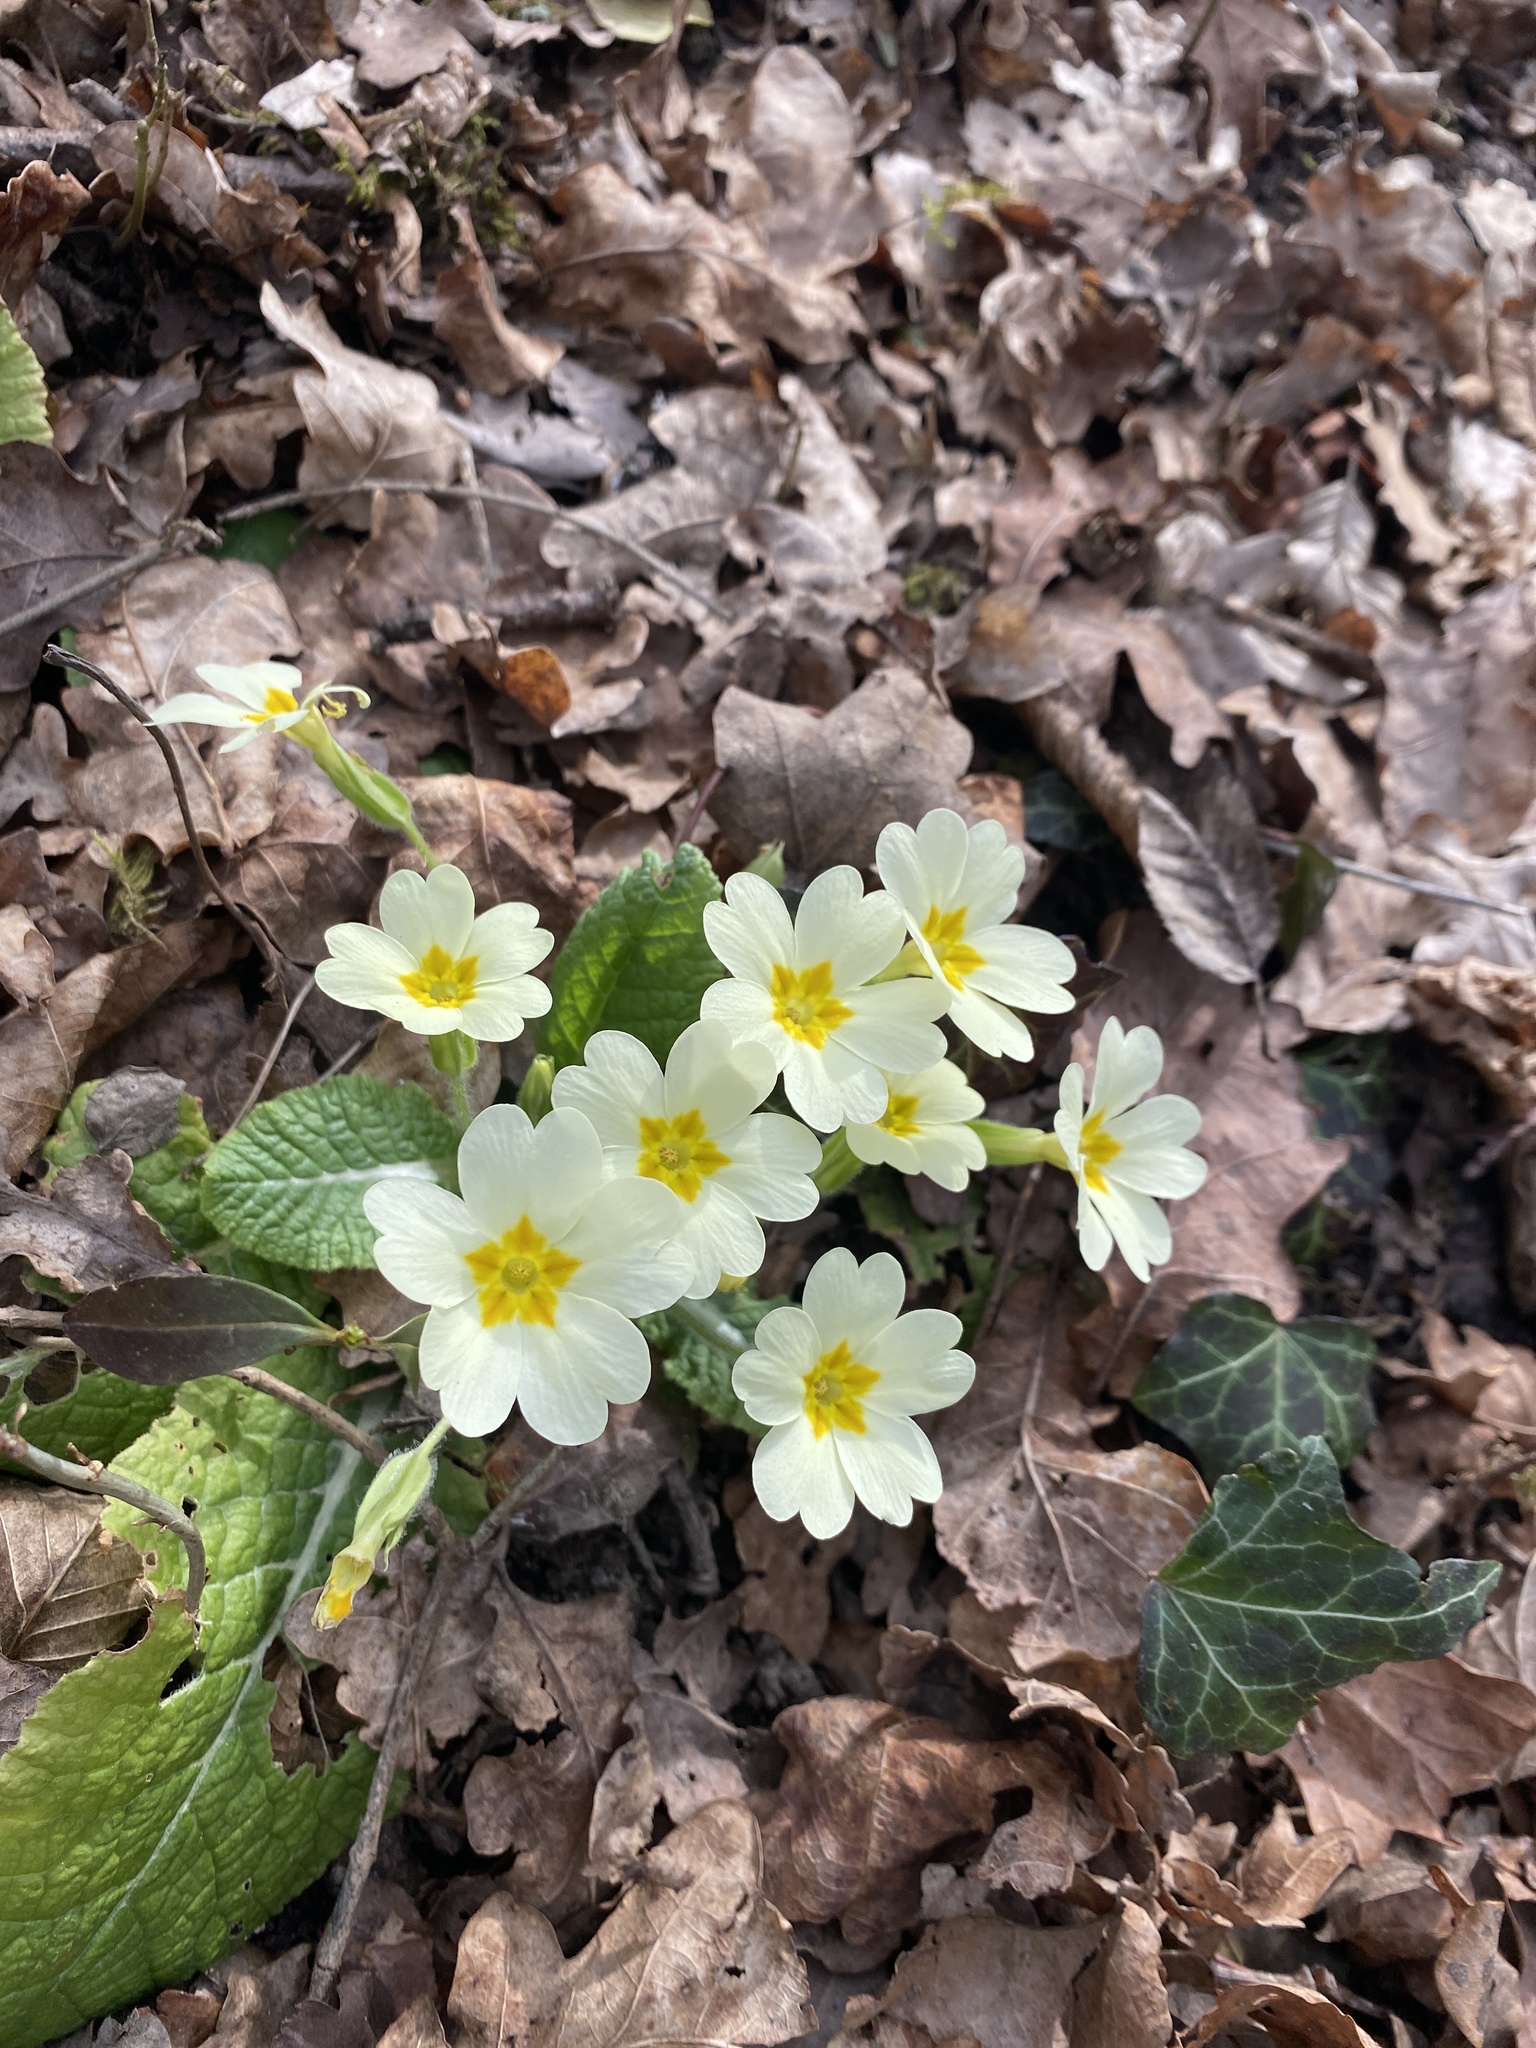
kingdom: Plantae
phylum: Tracheophyta
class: Magnoliopsida
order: Ericales
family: Primulaceae
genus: Primula
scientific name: Primula vulgaris
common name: Primrose
